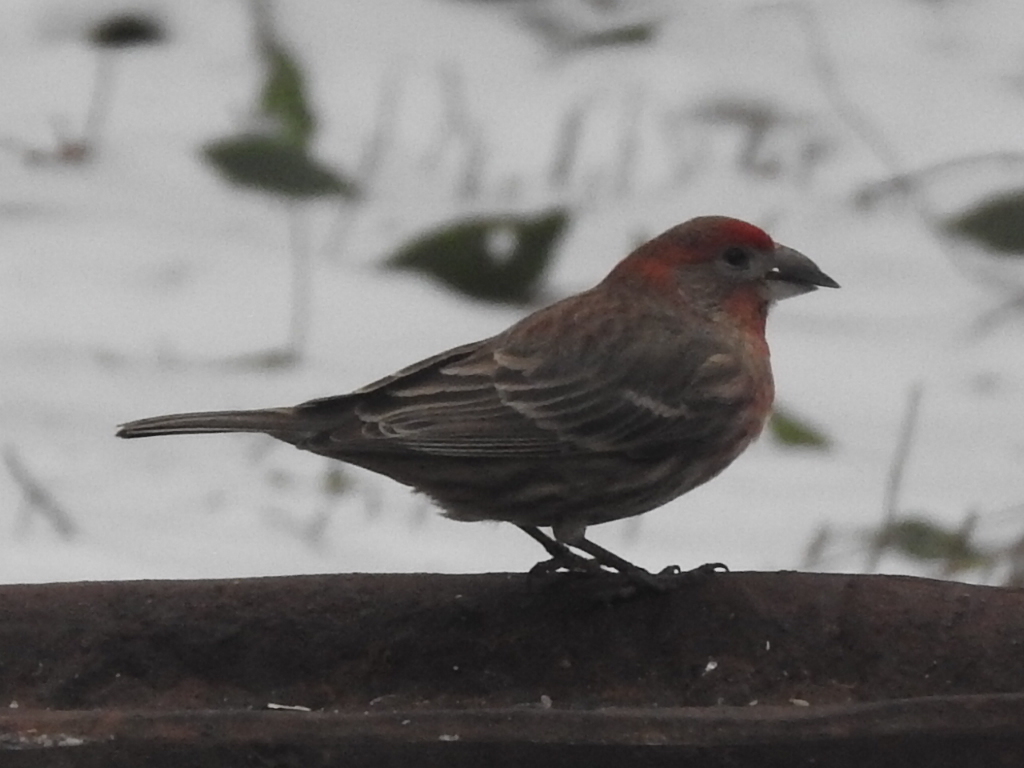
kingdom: Animalia
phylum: Chordata
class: Aves
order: Passeriformes
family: Fringillidae
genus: Haemorhous
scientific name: Haemorhous mexicanus
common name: House finch
